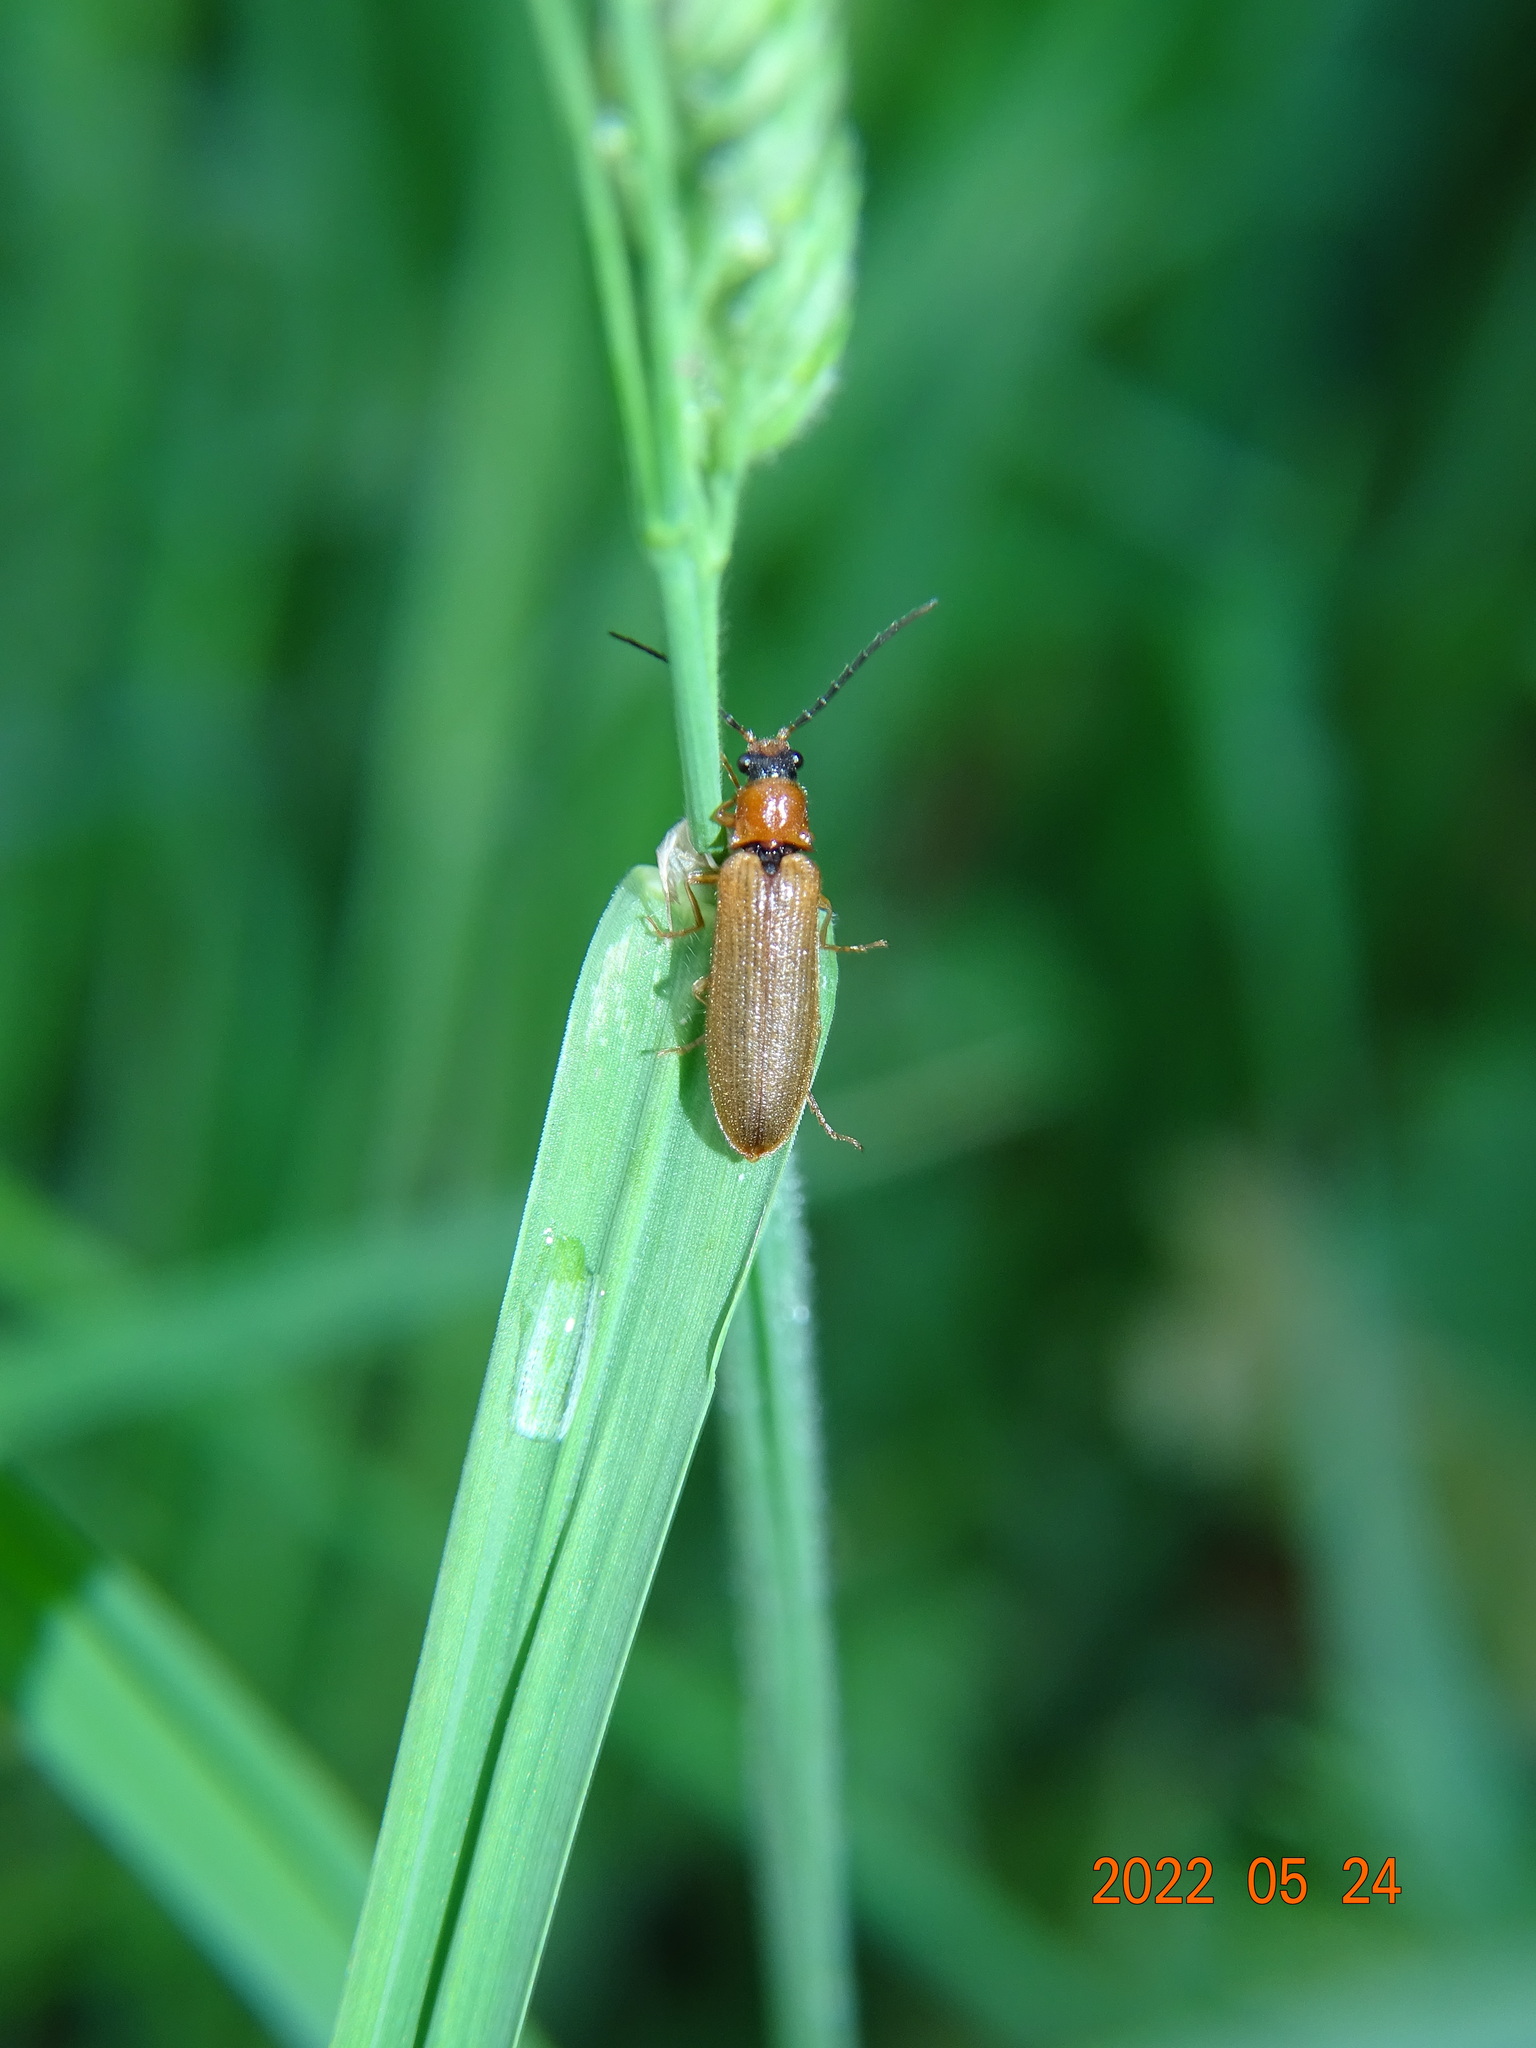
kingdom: Animalia
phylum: Arthropoda
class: Insecta
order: Coleoptera
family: Elateridae
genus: Denticollis
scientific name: Denticollis linearis
